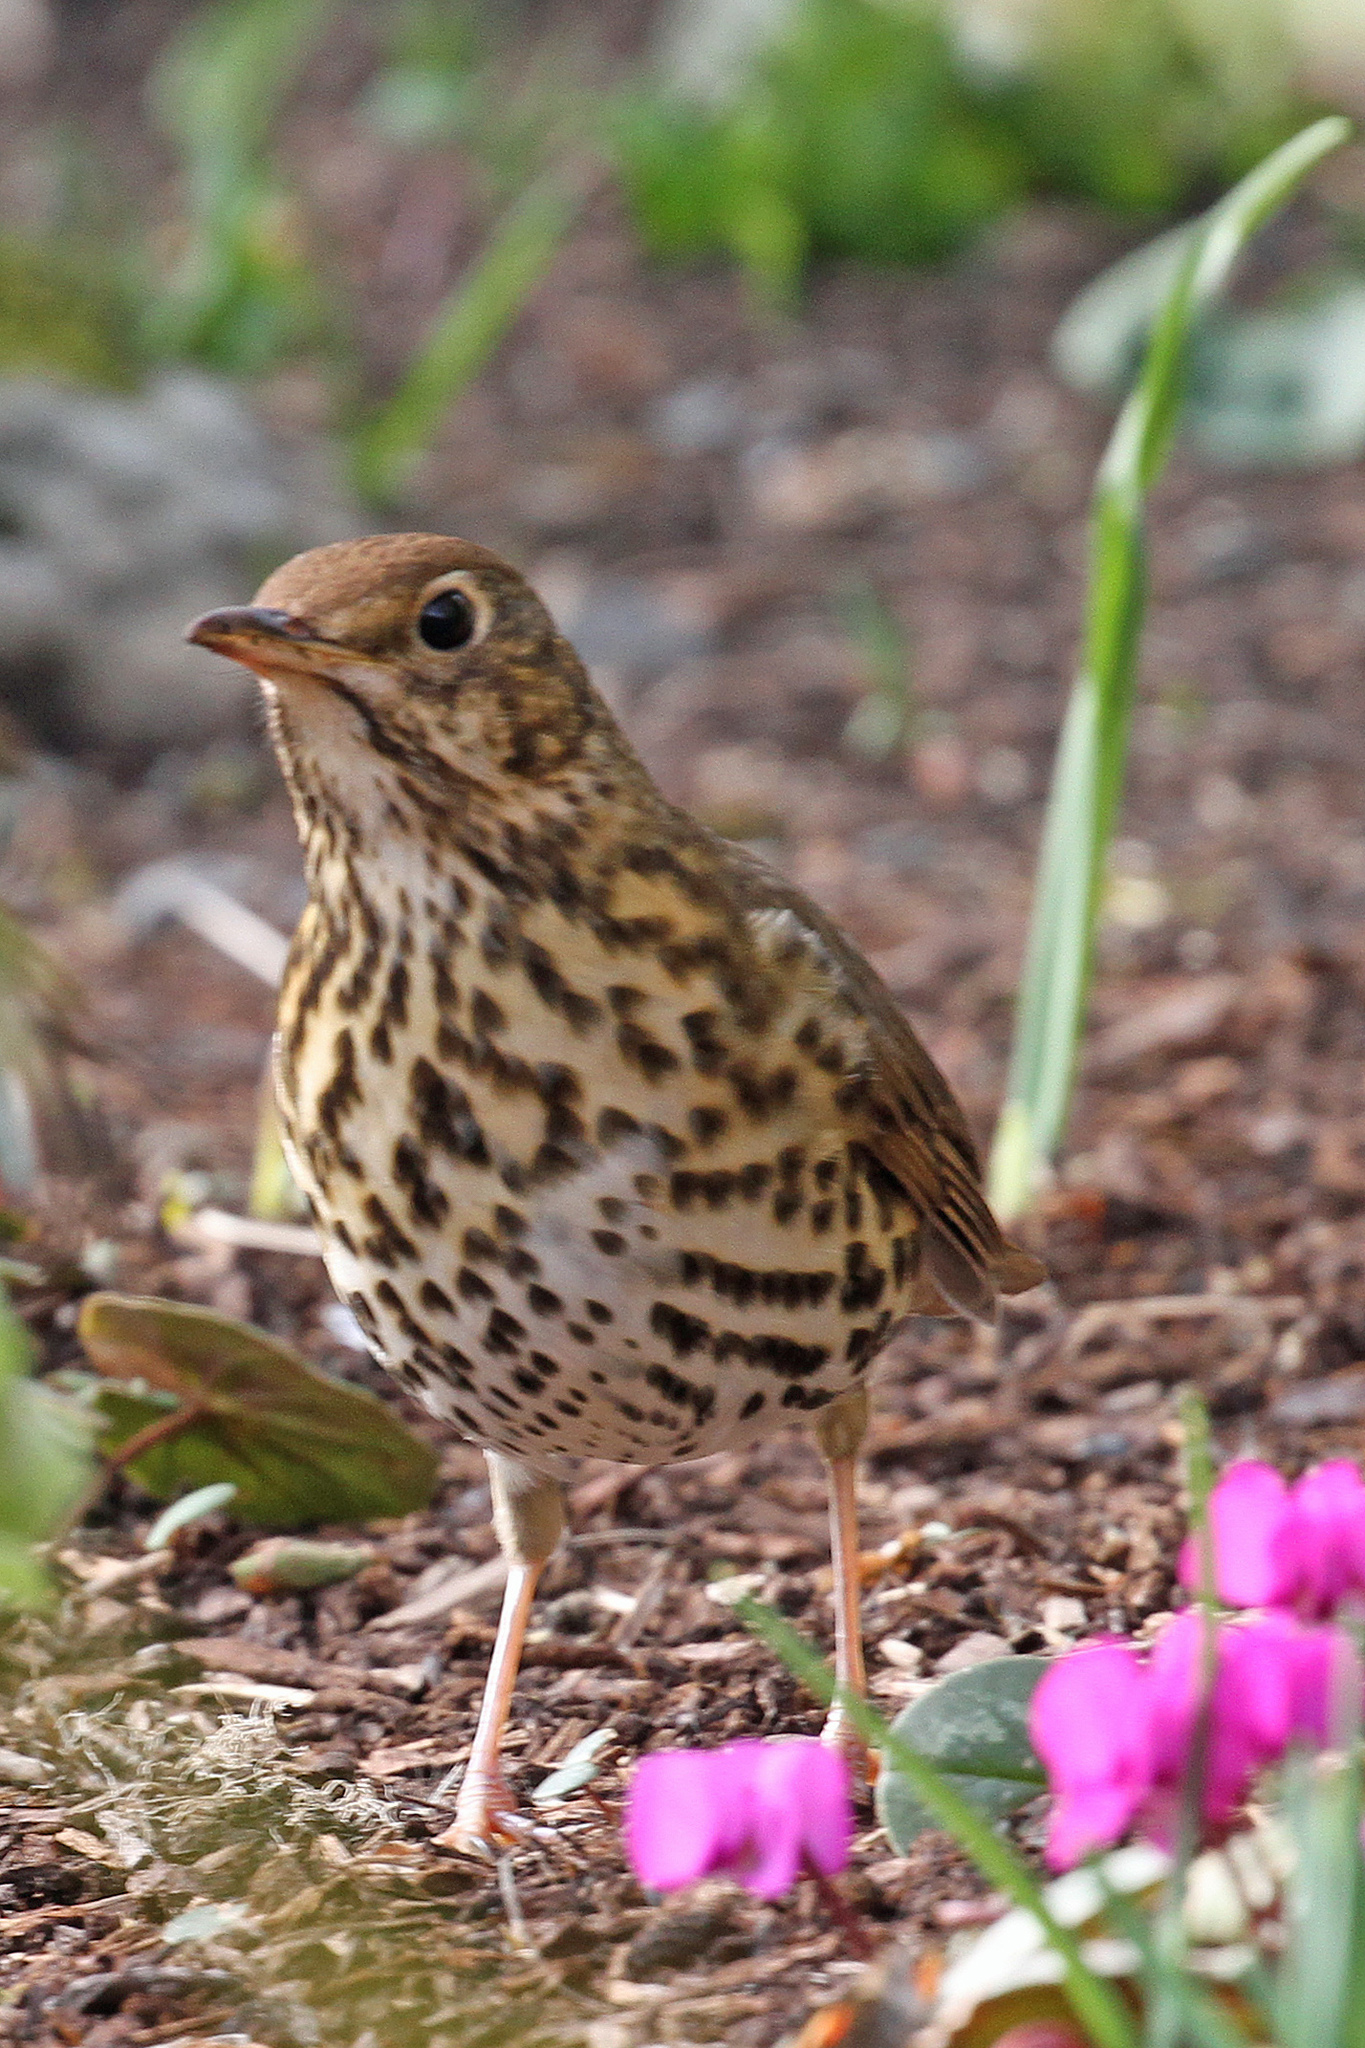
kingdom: Animalia
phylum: Chordata
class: Aves
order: Passeriformes
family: Turdidae
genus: Turdus
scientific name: Turdus philomelos
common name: Song thrush
